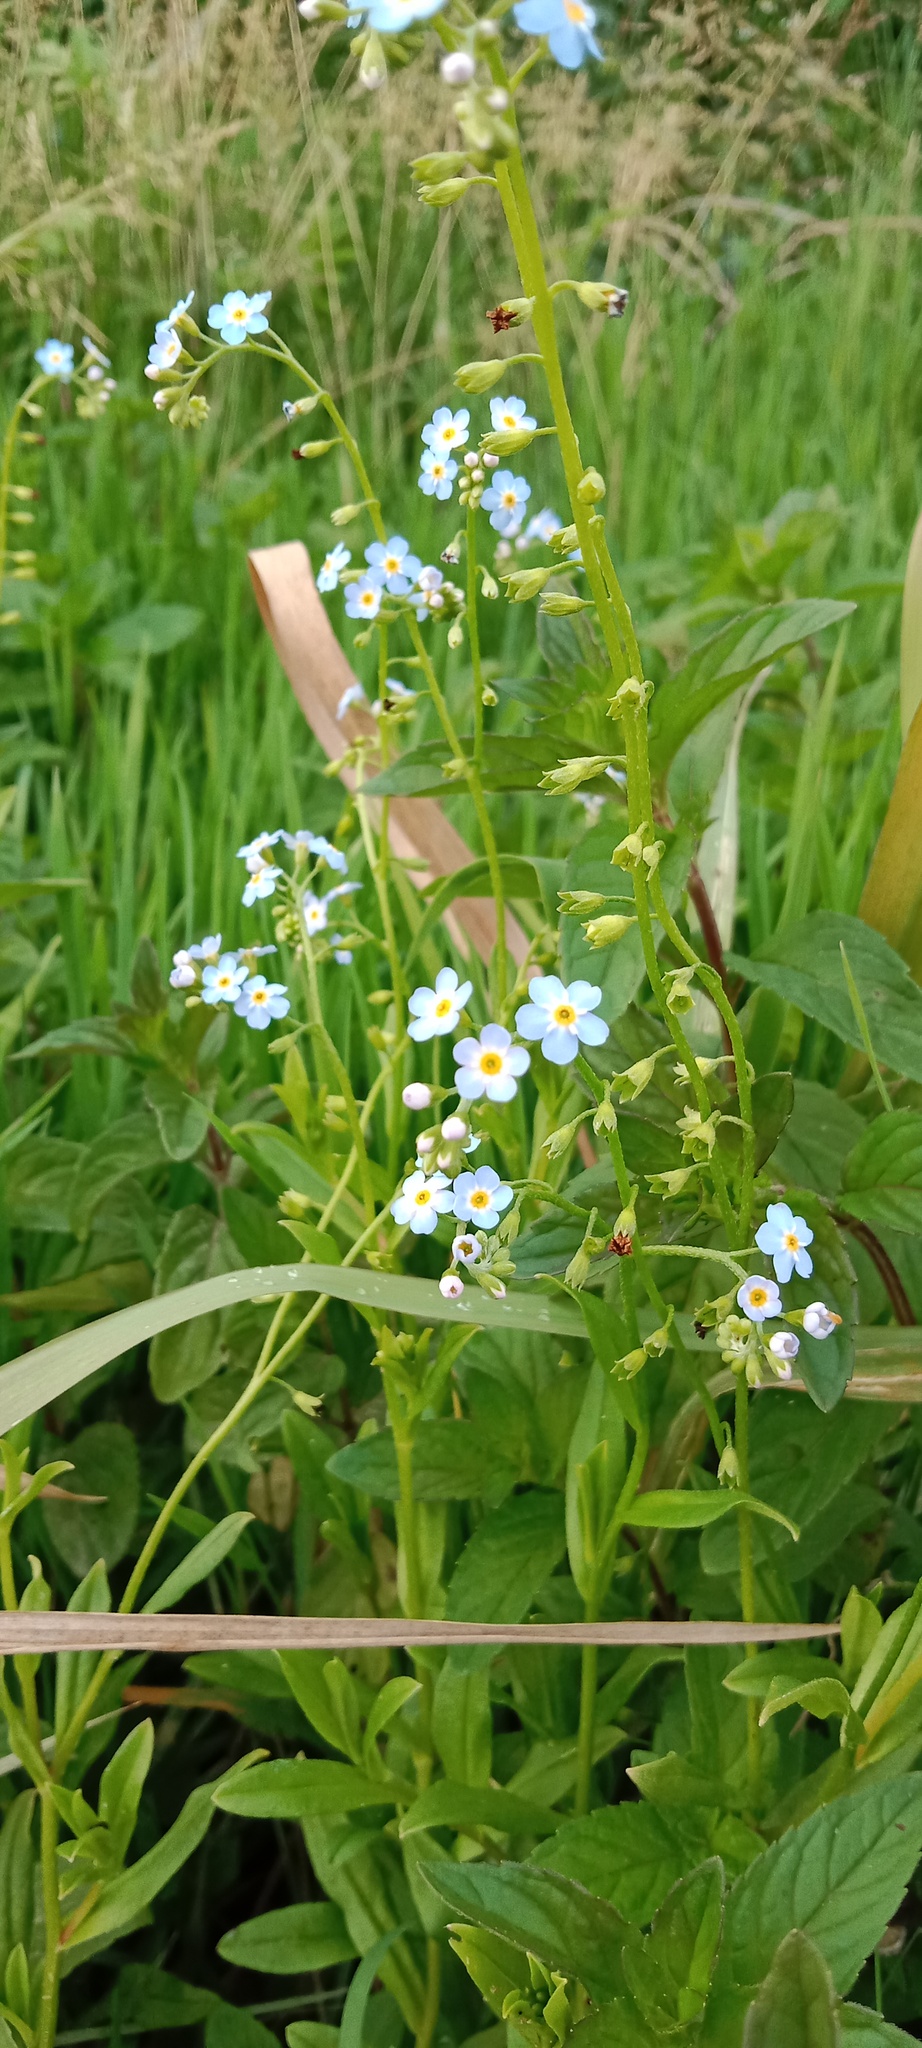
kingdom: Plantae
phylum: Tracheophyta
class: Magnoliopsida
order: Boraginales
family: Boraginaceae
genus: Myosotis
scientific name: Myosotis scorpioides
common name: Water forget-me-not
